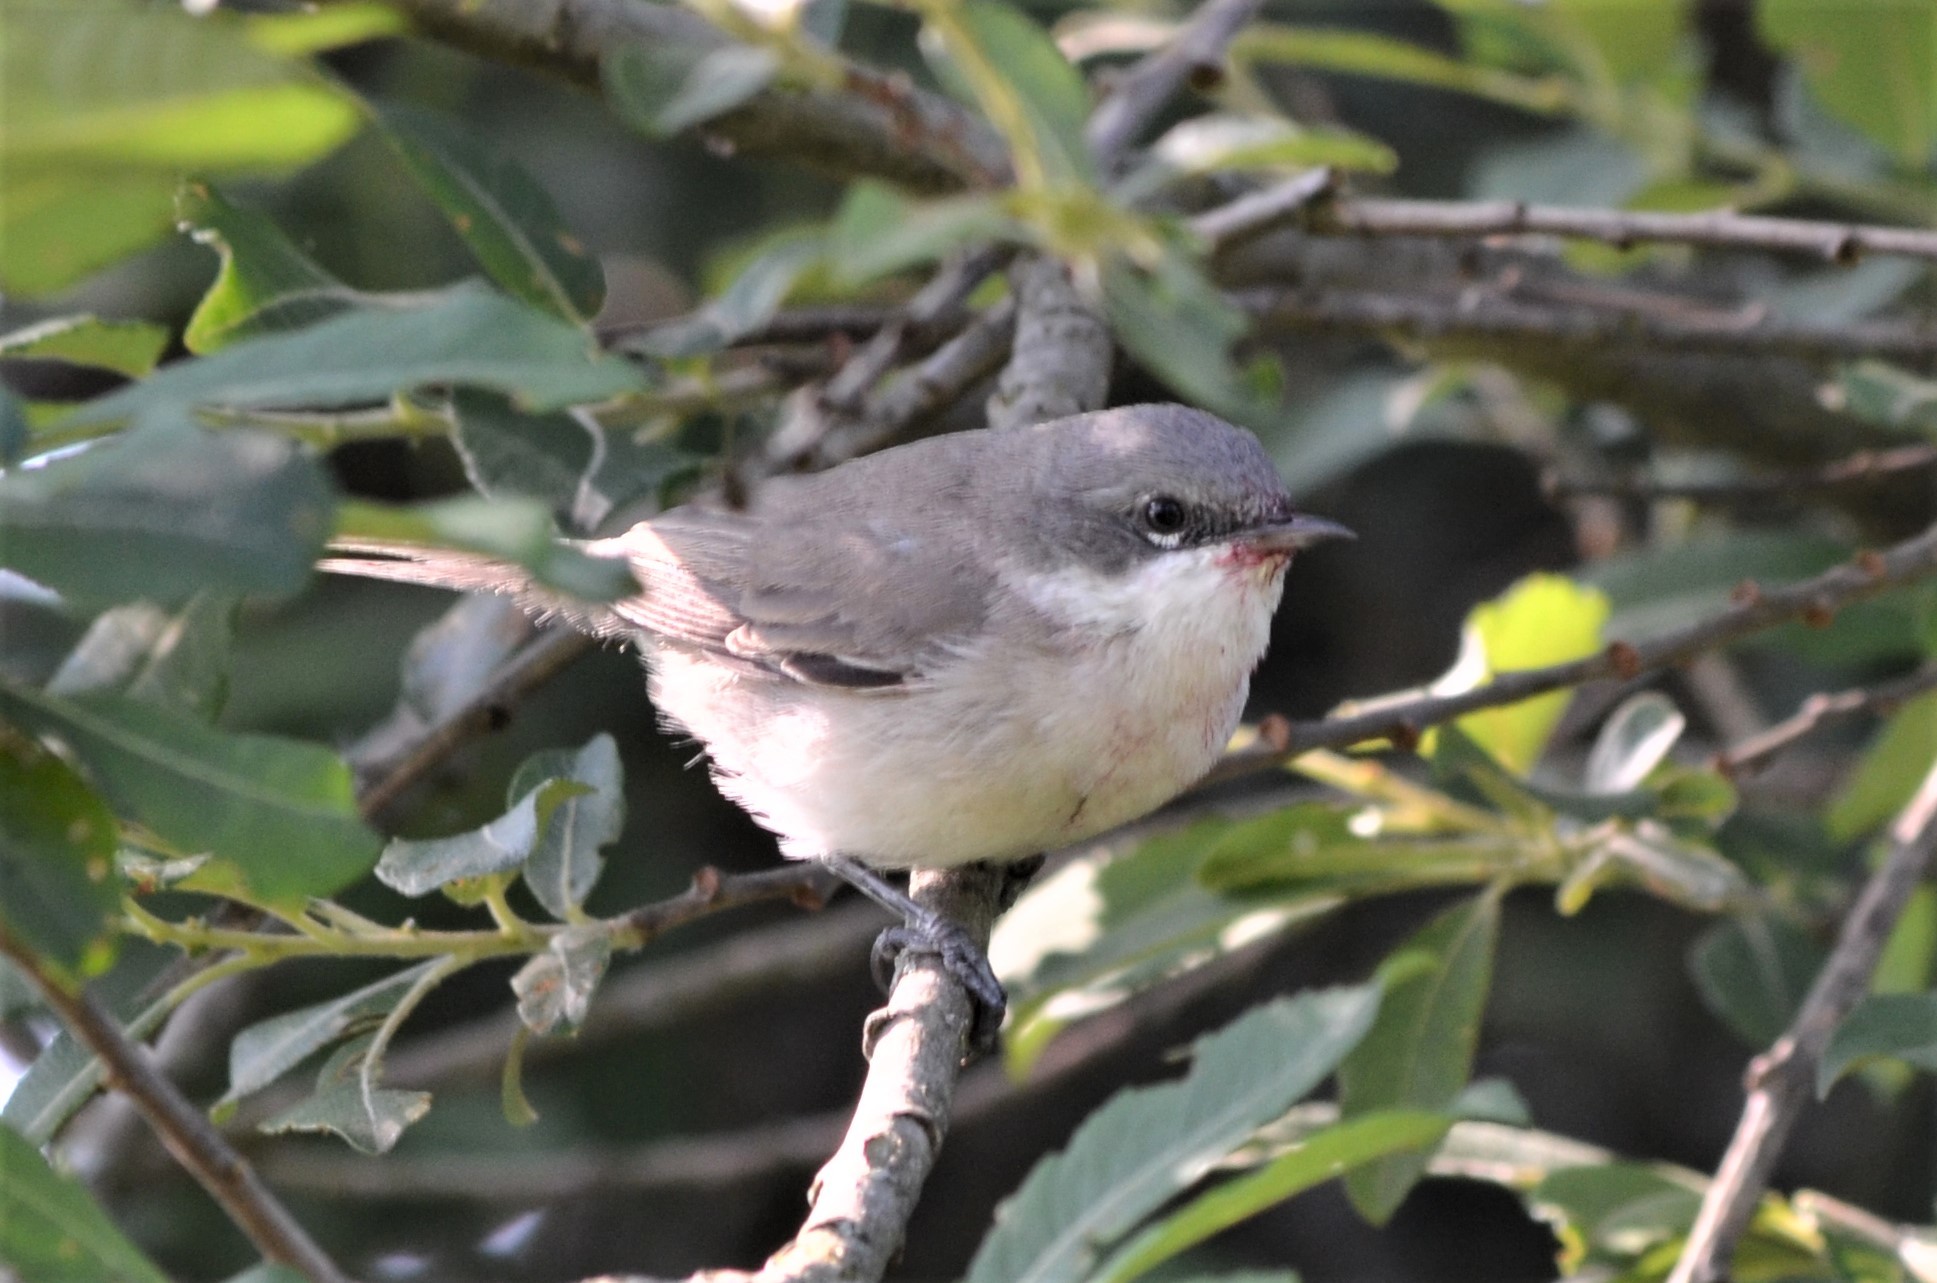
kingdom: Animalia
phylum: Chordata
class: Aves
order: Passeriformes
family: Sylviidae
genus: Sylvia
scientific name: Sylvia curruca
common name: Lesser whitethroat
